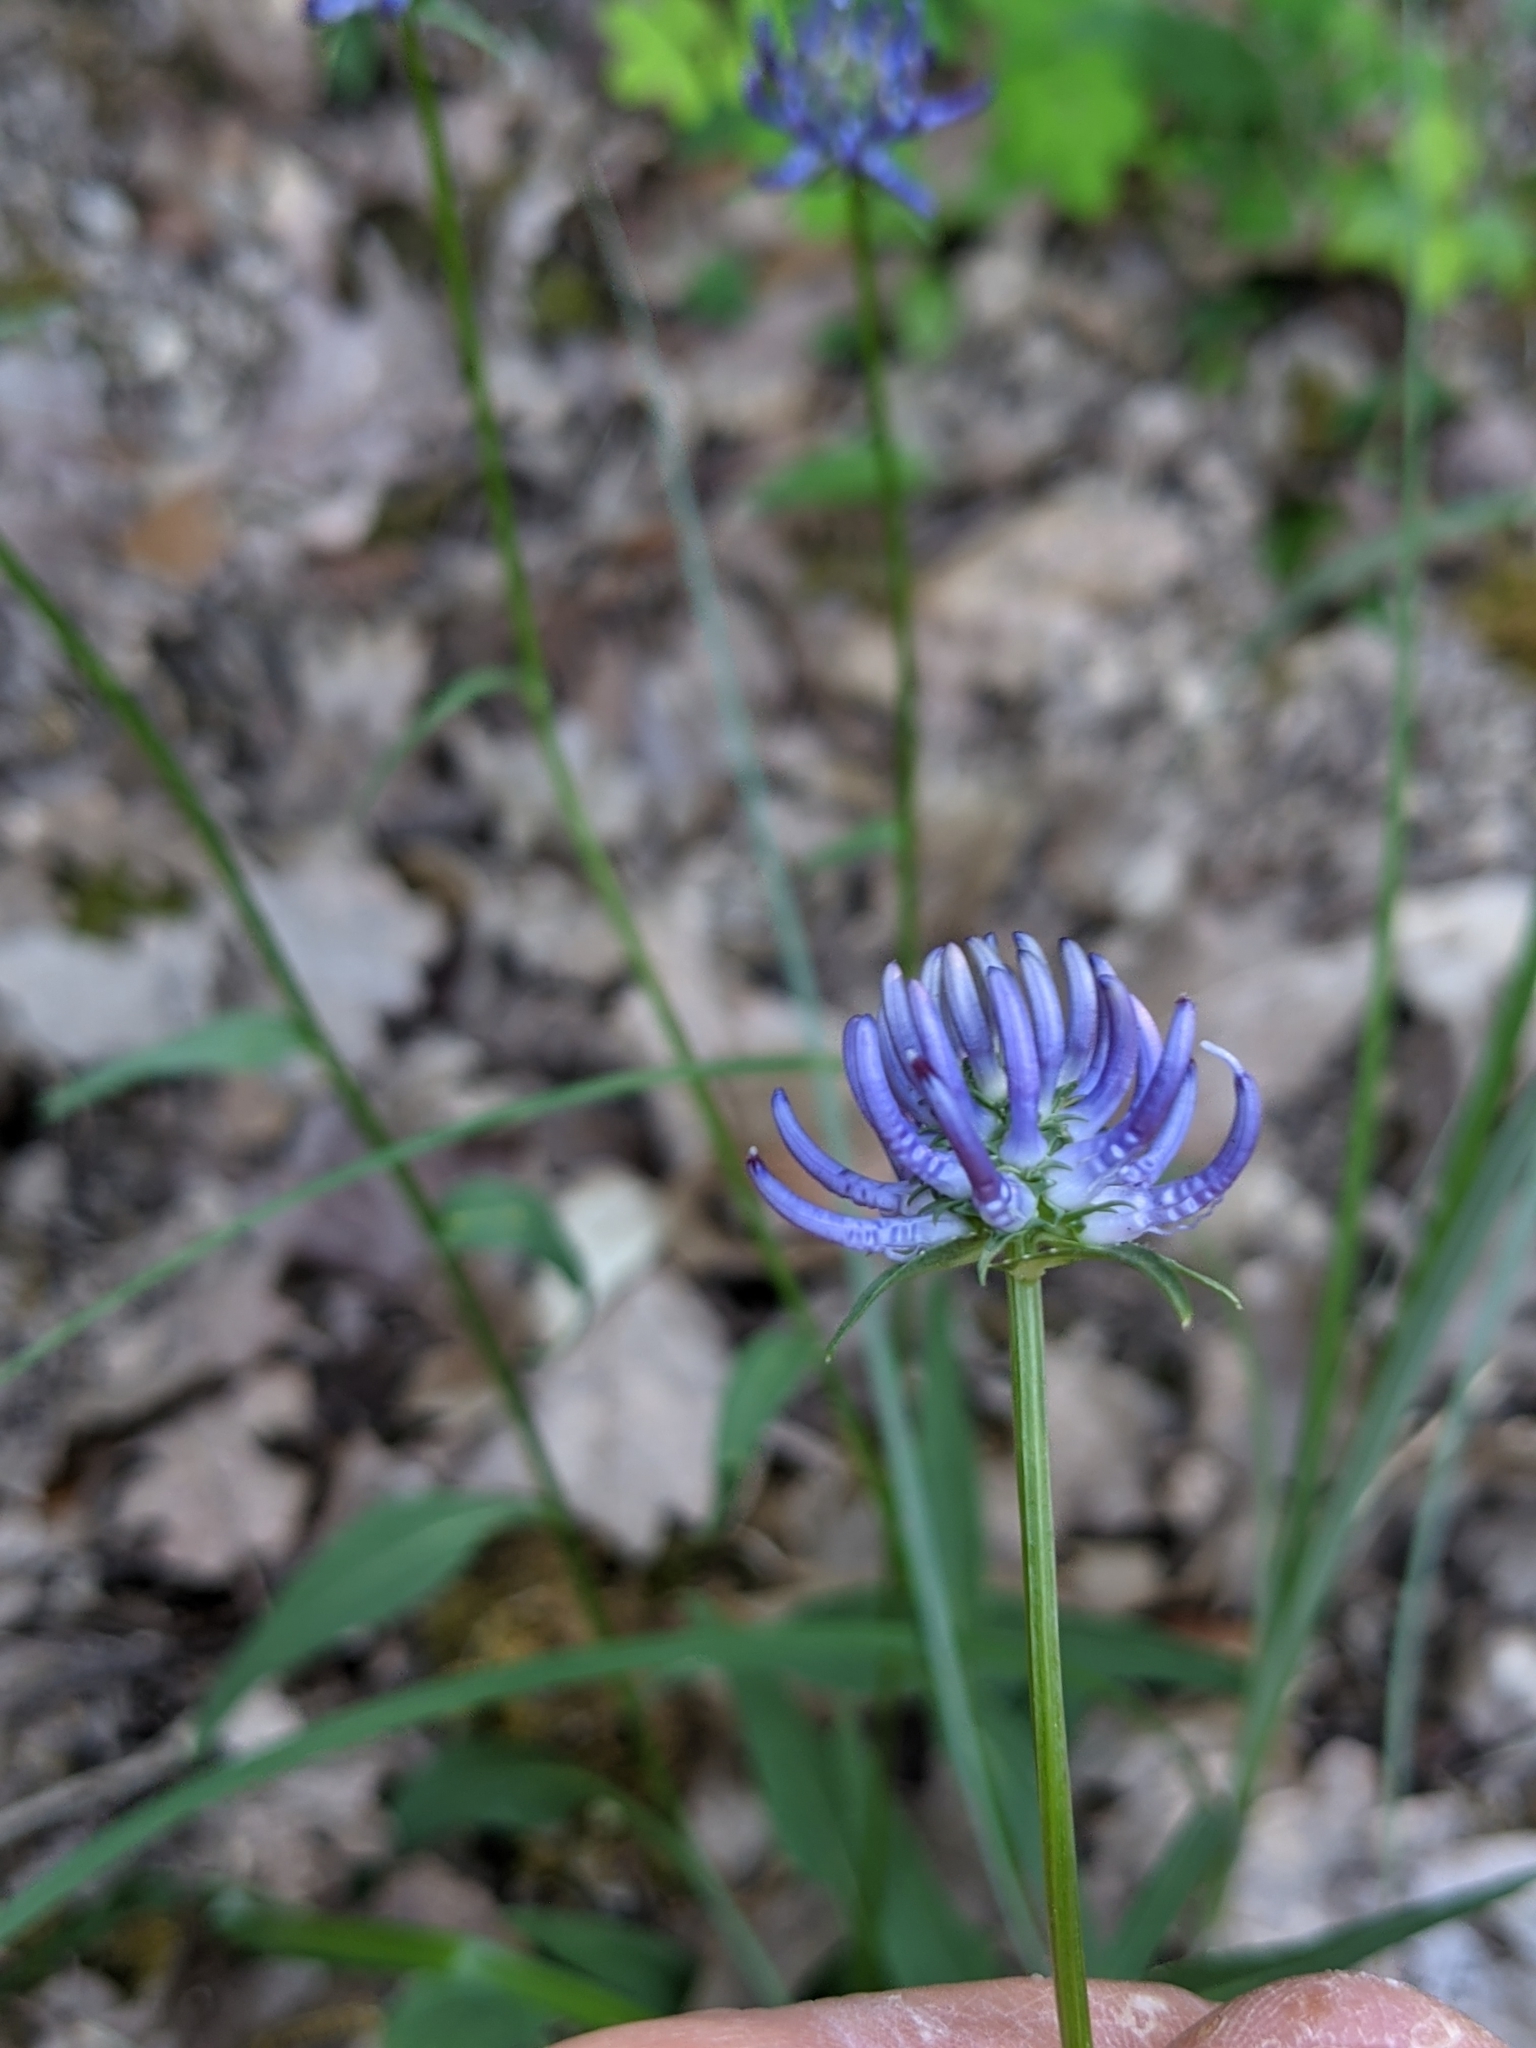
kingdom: Plantae
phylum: Tracheophyta
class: Magnoliopsida
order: Asterales
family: Campanulaceae
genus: Phyteuma
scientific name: Phyteuma orbiculare
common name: Round-headed rampion
